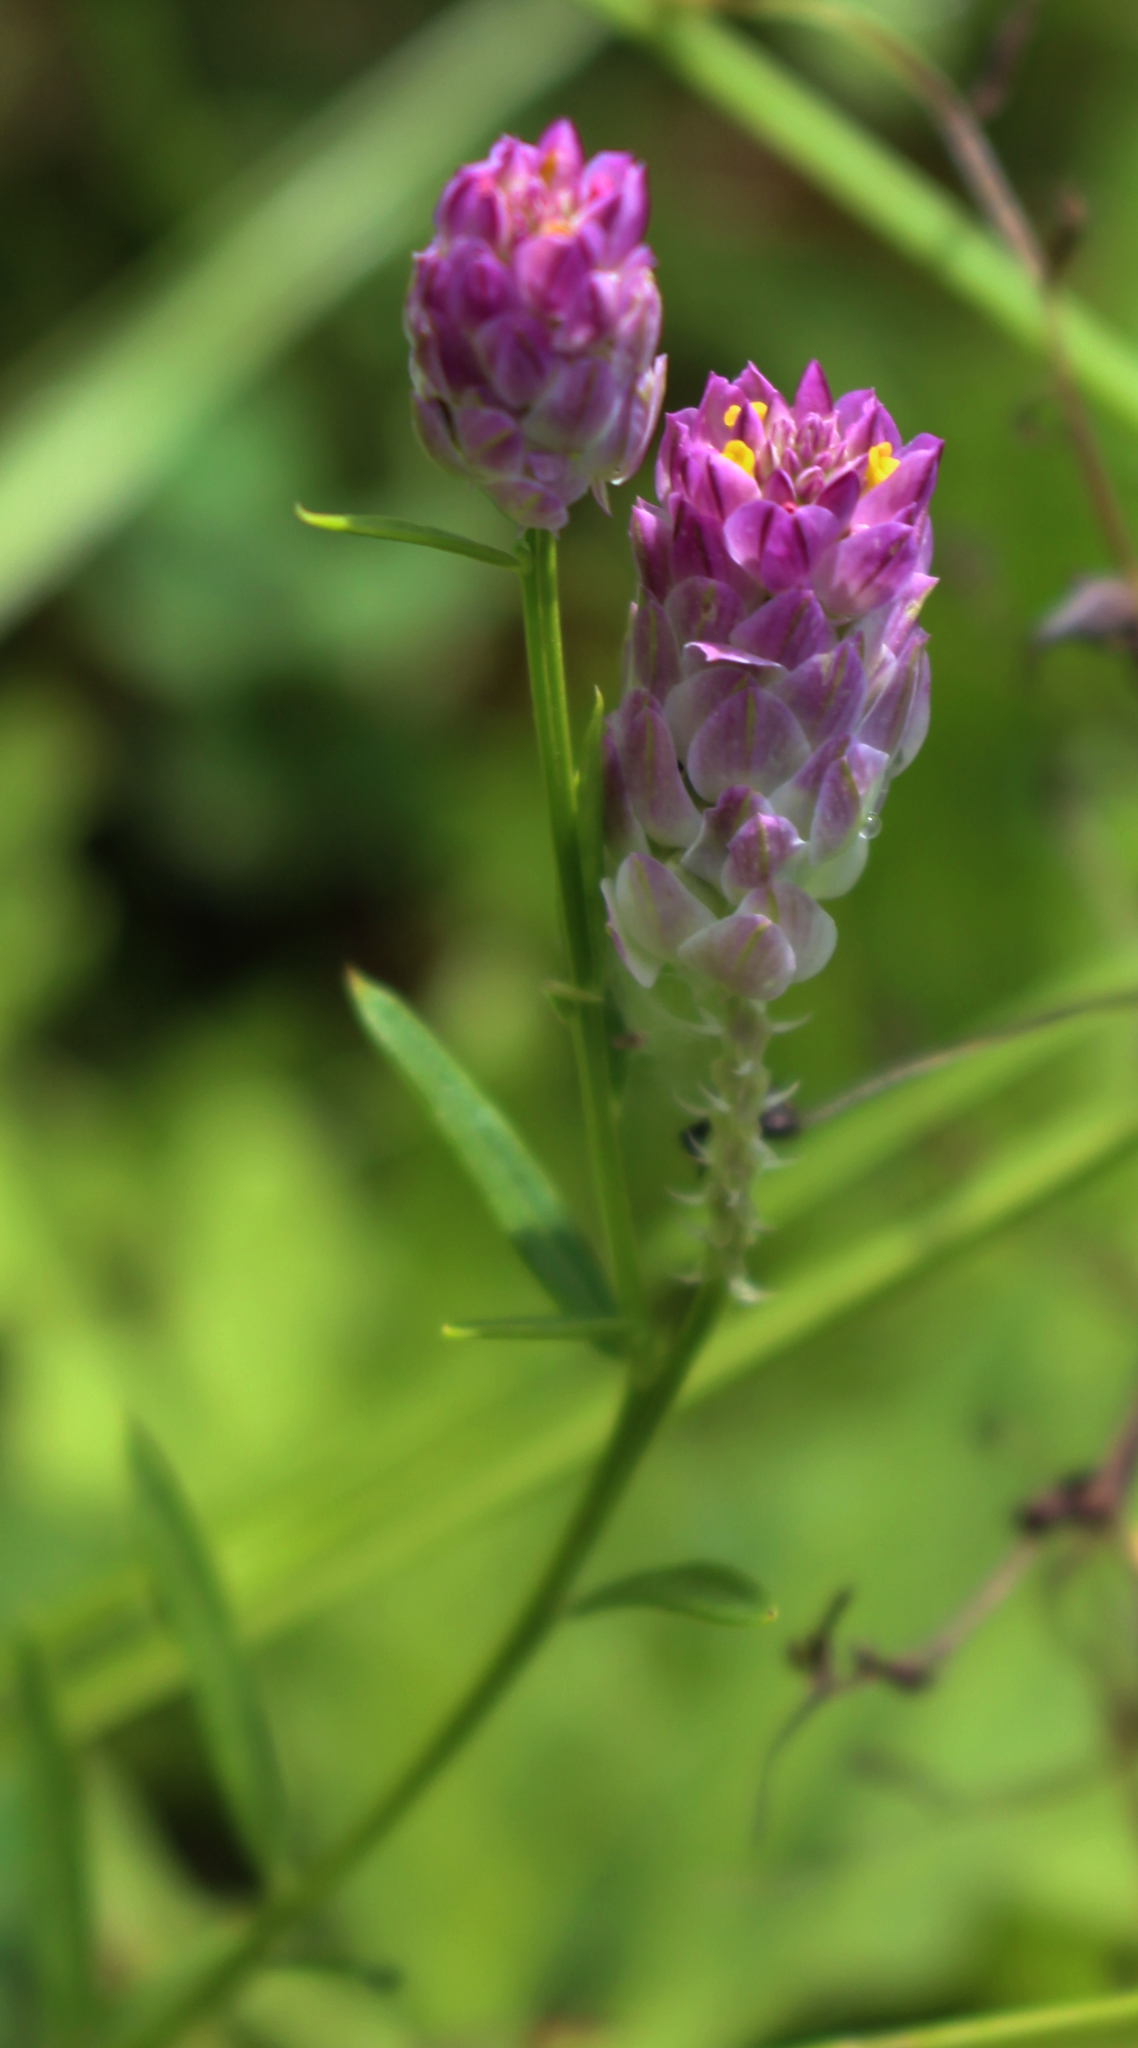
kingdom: Plantae
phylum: Tracheophyta
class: Magnoliopsida
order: Fabales
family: Polygalaceae
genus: Polygala
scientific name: Polygala sanguinea
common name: Blood milkwort
